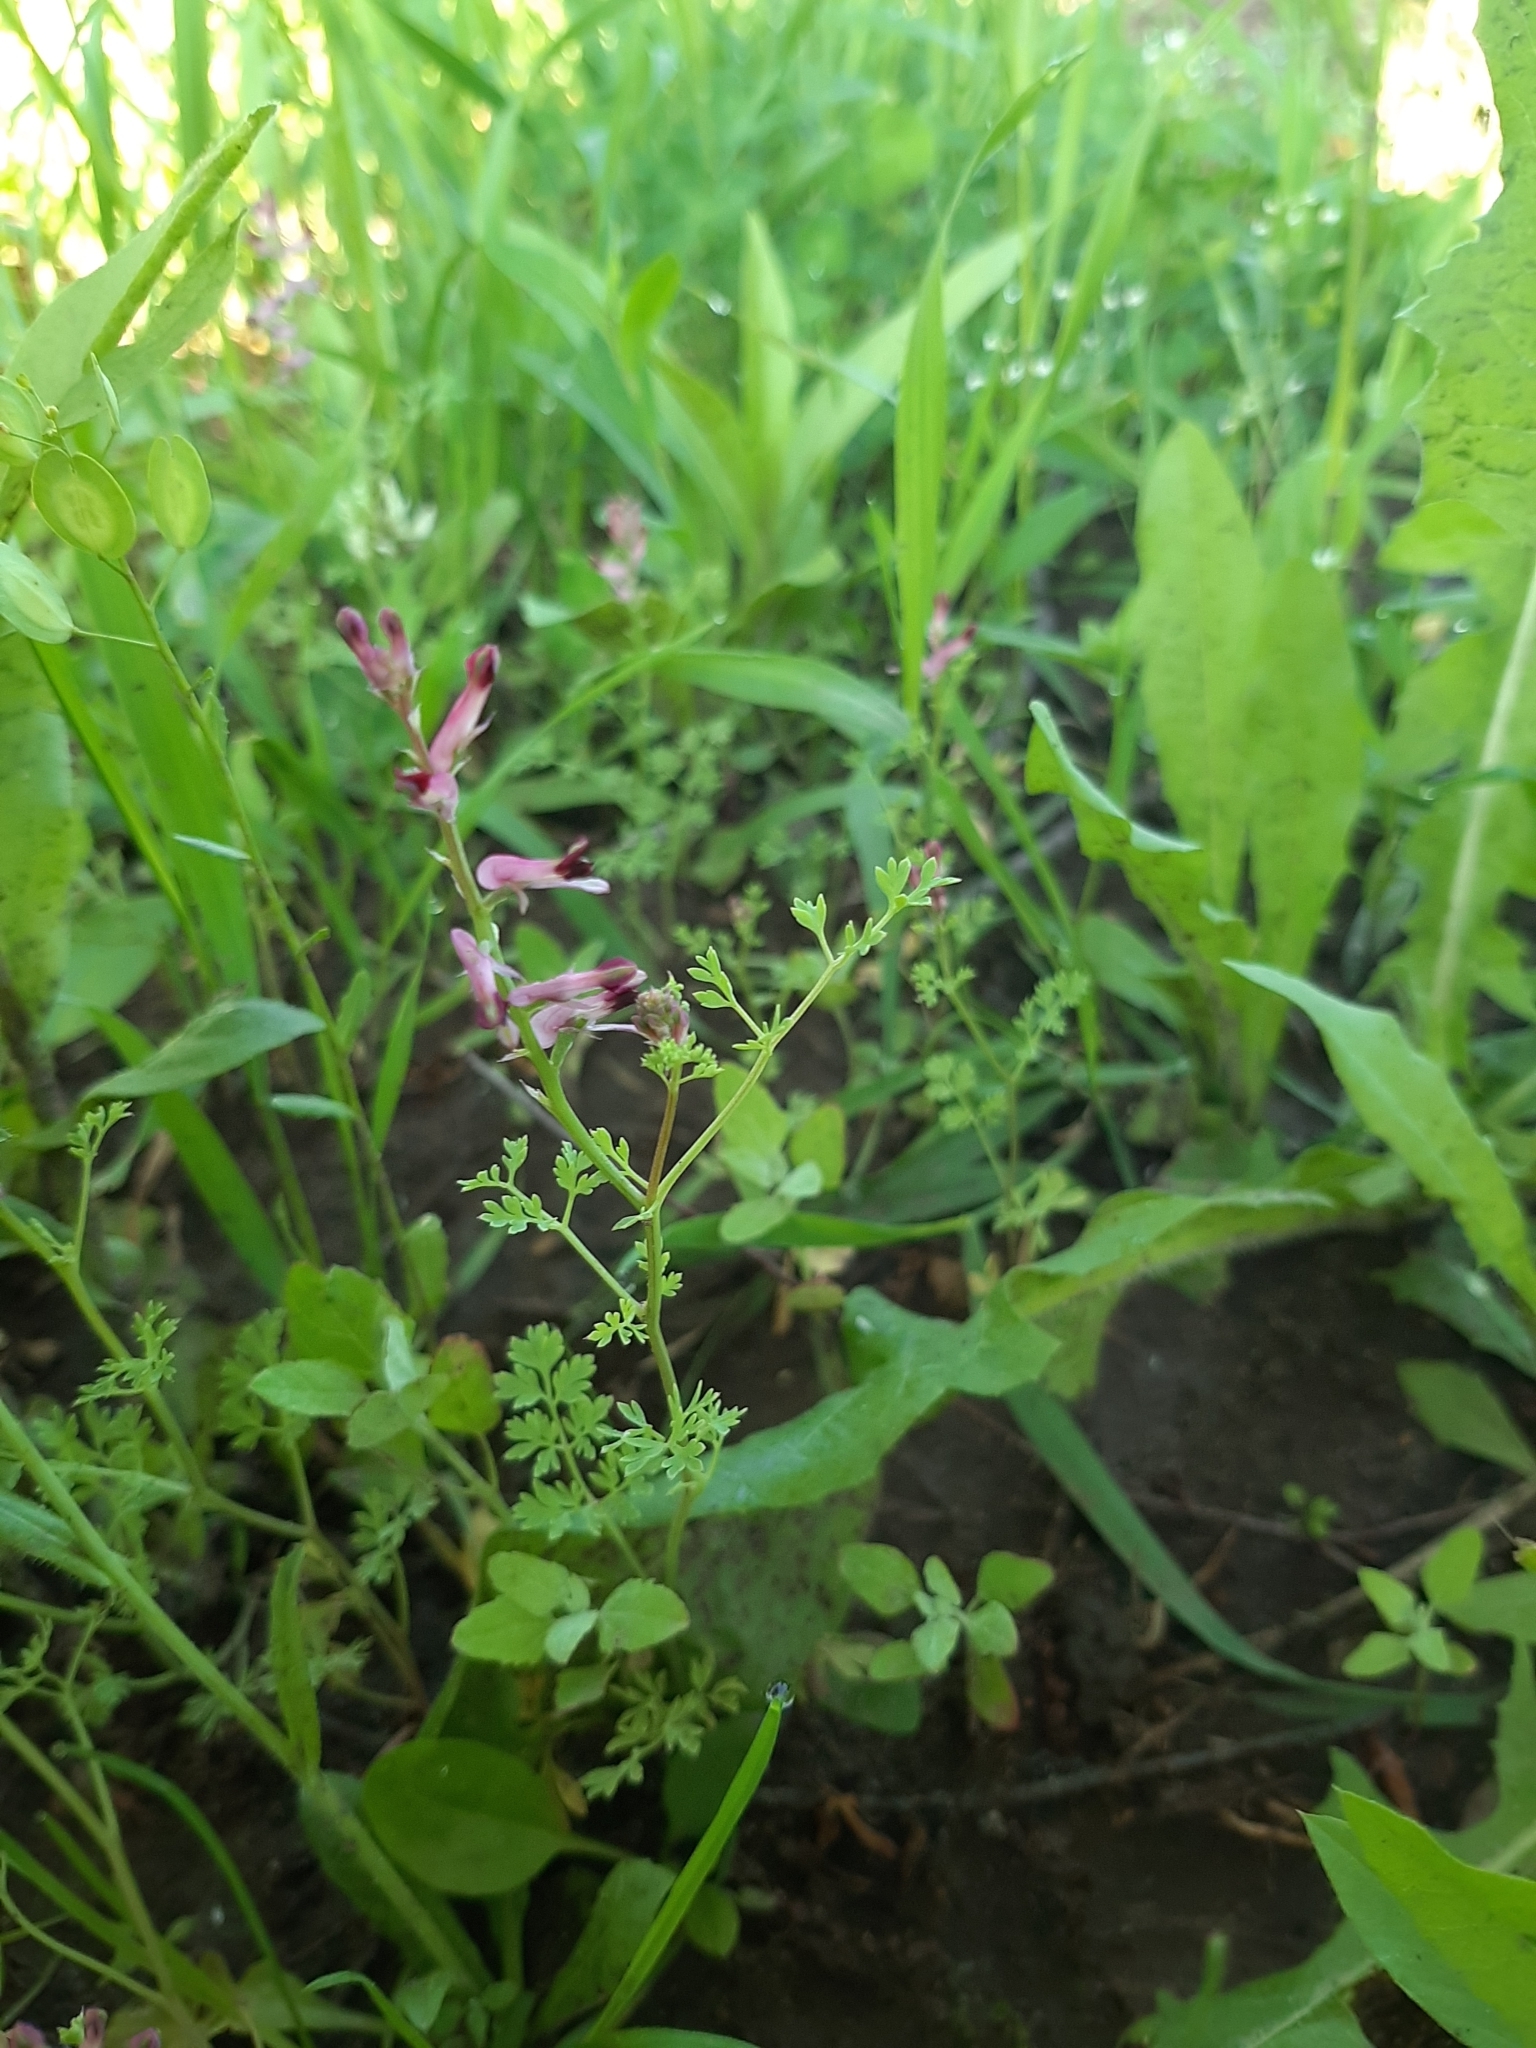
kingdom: Plantae
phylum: Tracheophyta
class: Magnoliopsida
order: Ranunculales
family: Papaveraceae
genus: Fumaria
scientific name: Fumaria officinalis
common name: Common fumitory
